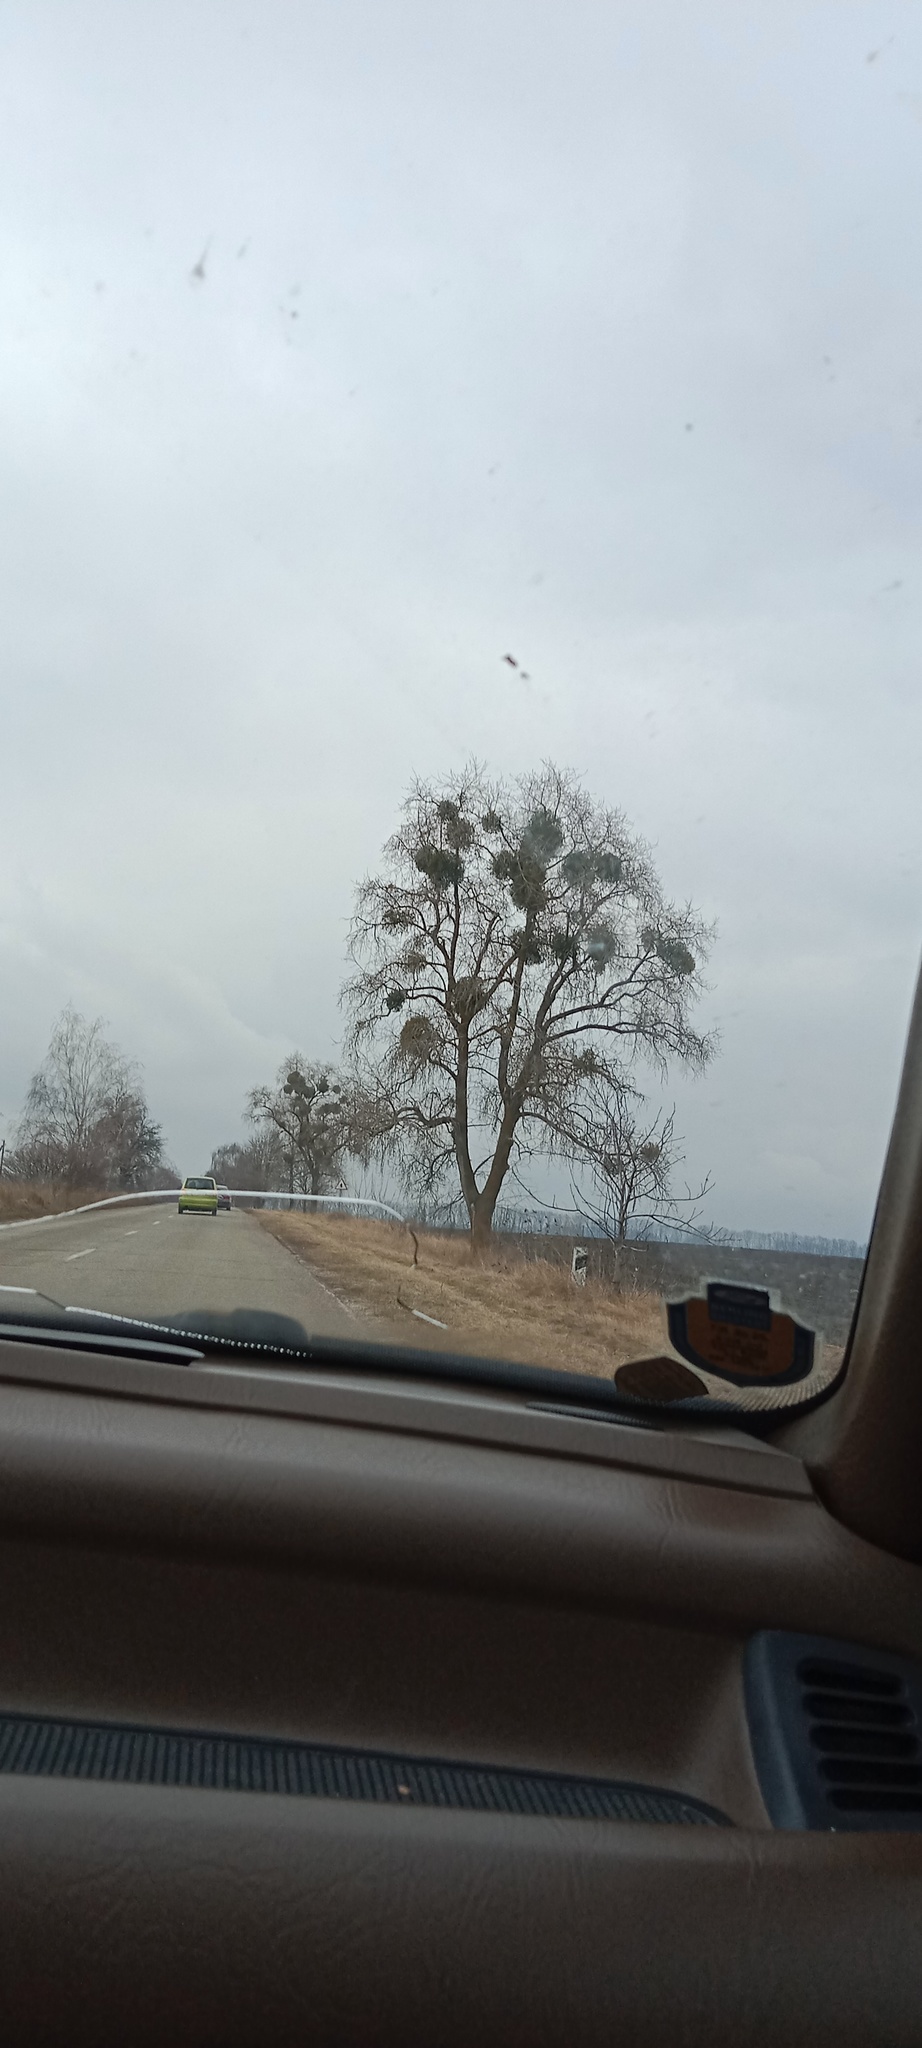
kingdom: Plantae
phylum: Tracheophyta
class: Magnoliopsida
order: Santalales
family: Viscaceae
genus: Viscum
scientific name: Viscum album
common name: Mistletoe
